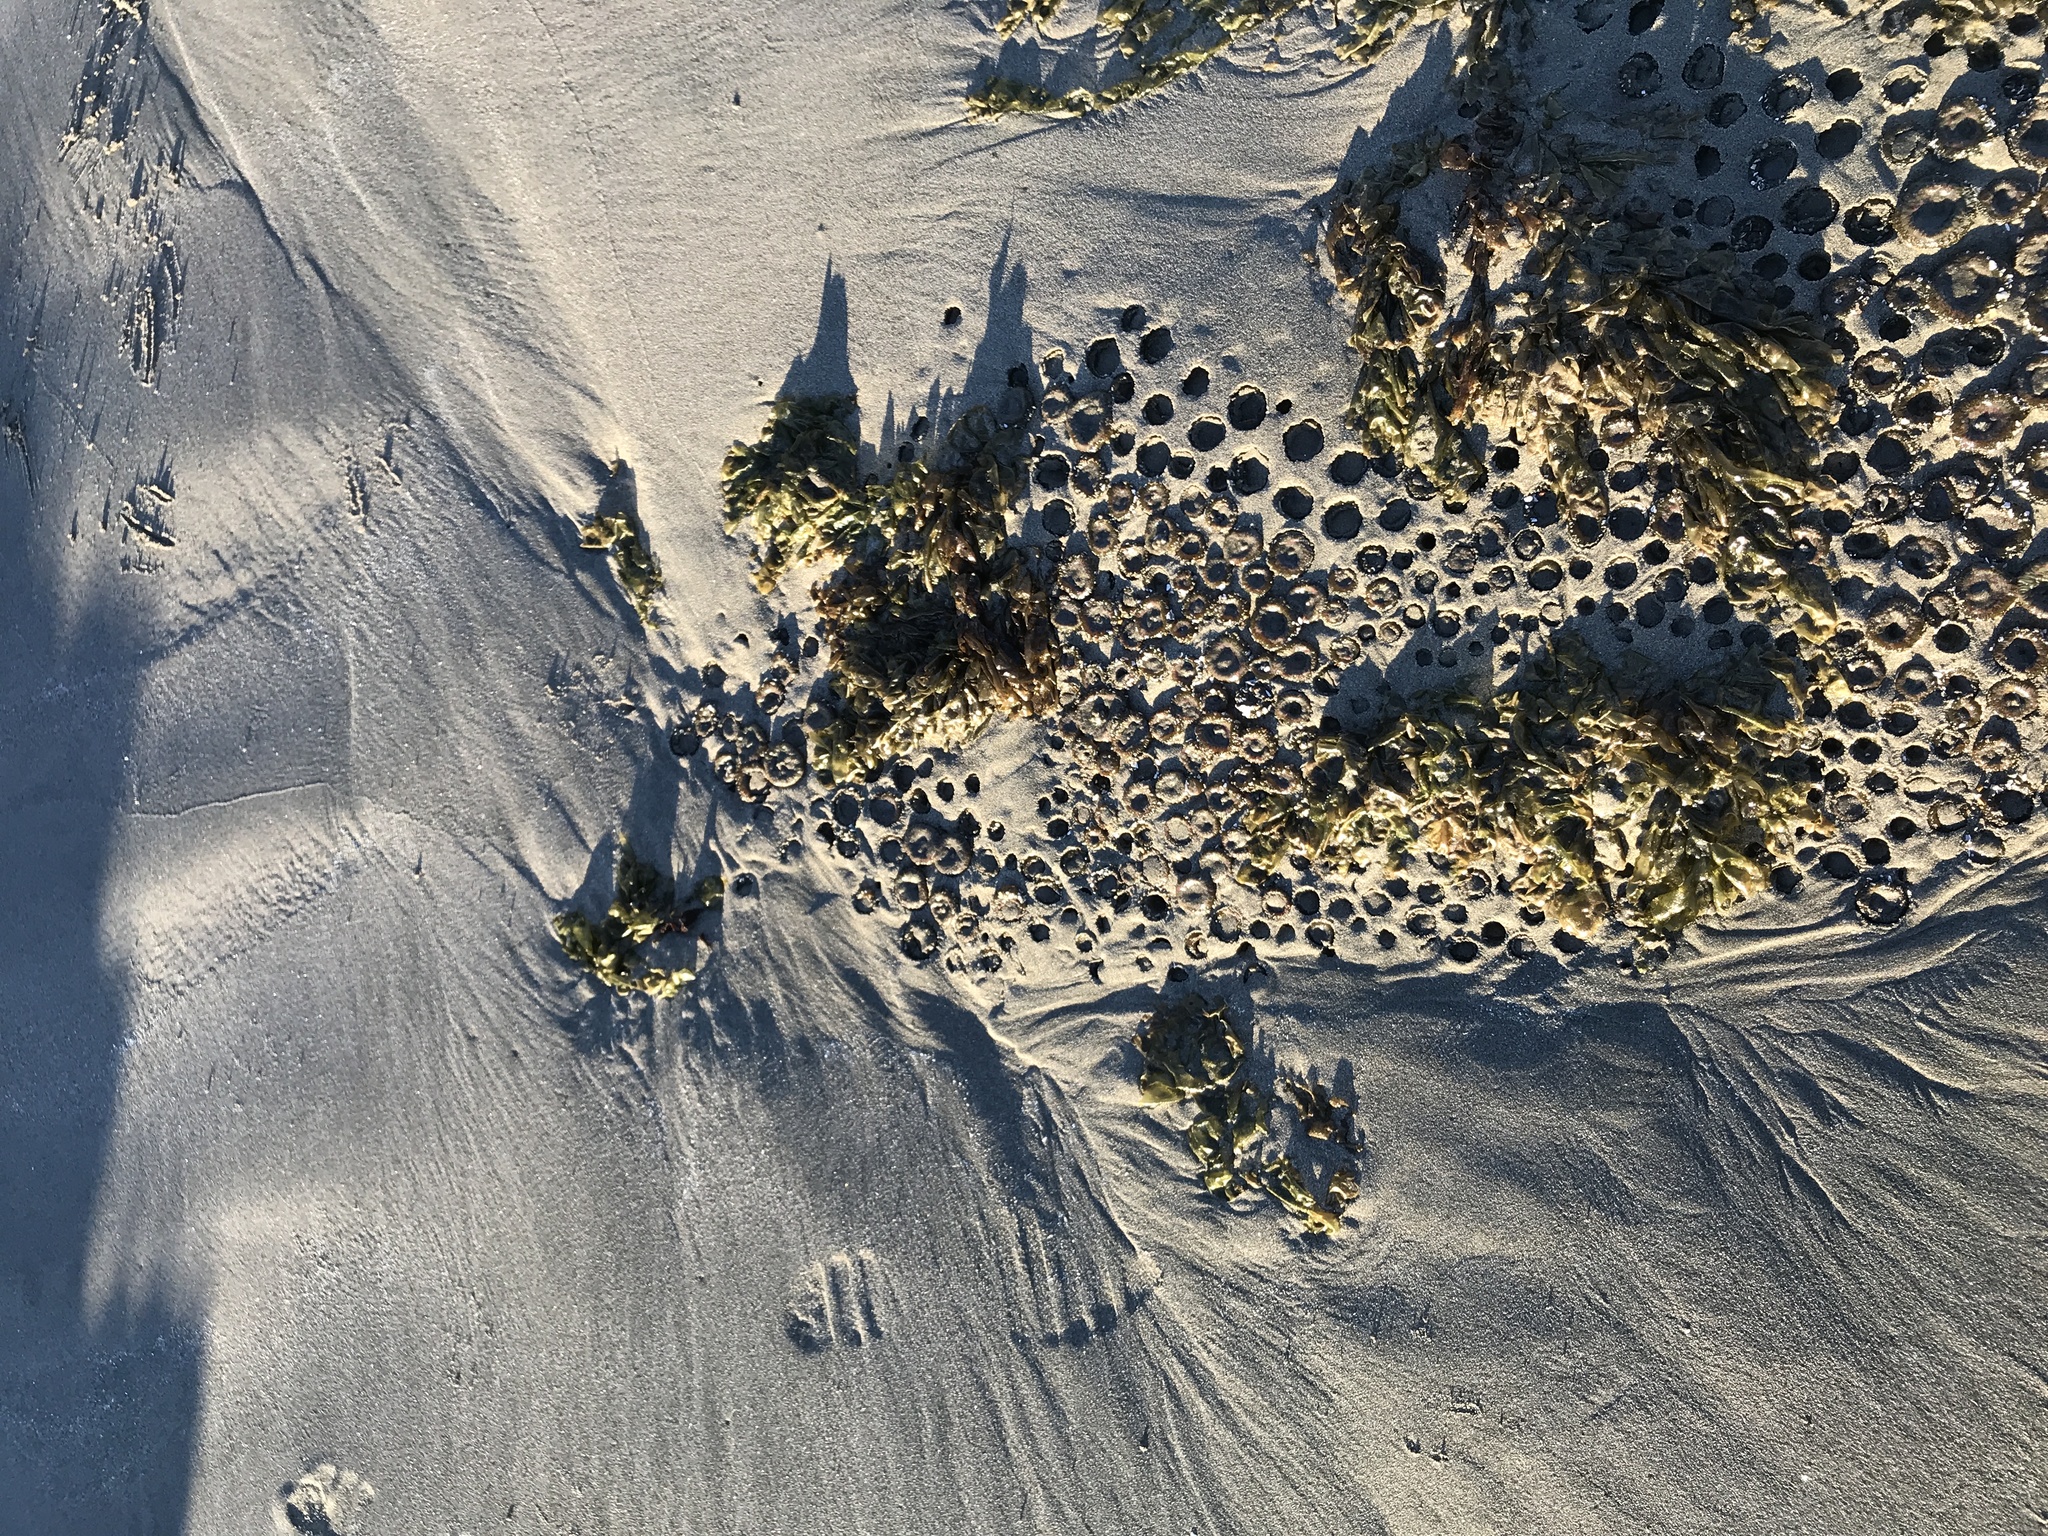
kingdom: Animalia
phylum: Cnidaria
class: Anthozoa
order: Actiniaria
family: Actiniidae
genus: Anthopleura
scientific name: Anthopleura elegantissima
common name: Clonal anemone
